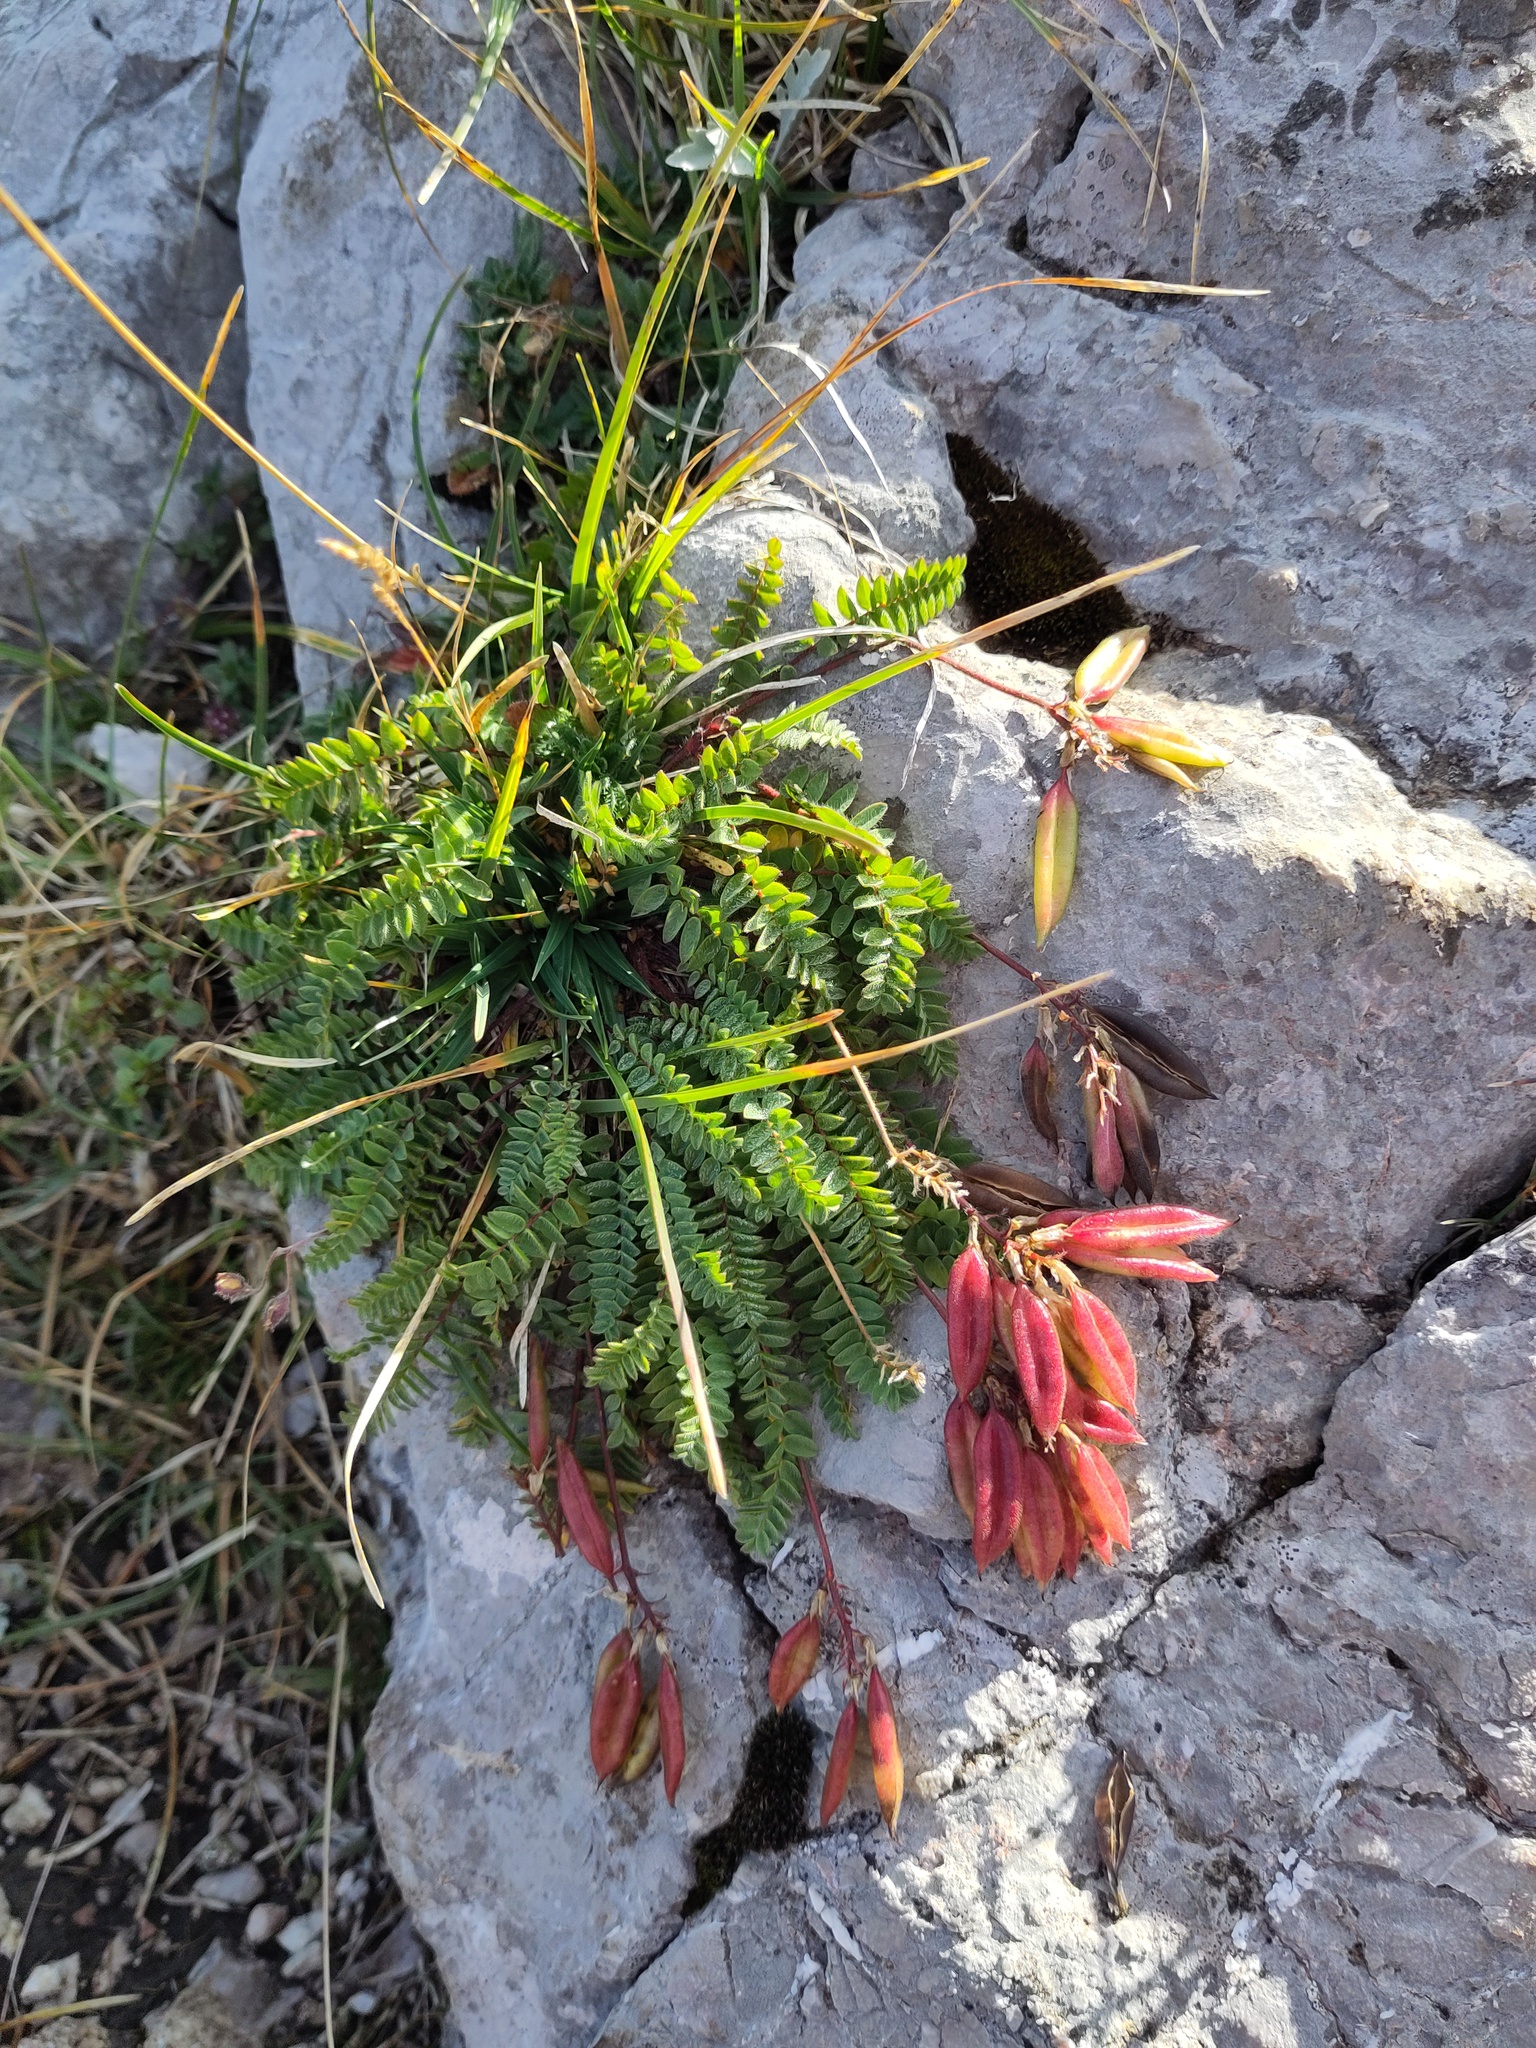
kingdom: Plantae
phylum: Tracheophyta
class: Magnoliopsida
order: Fabales
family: Fabaceae
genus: Oxytropis
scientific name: Oxytropis montana
